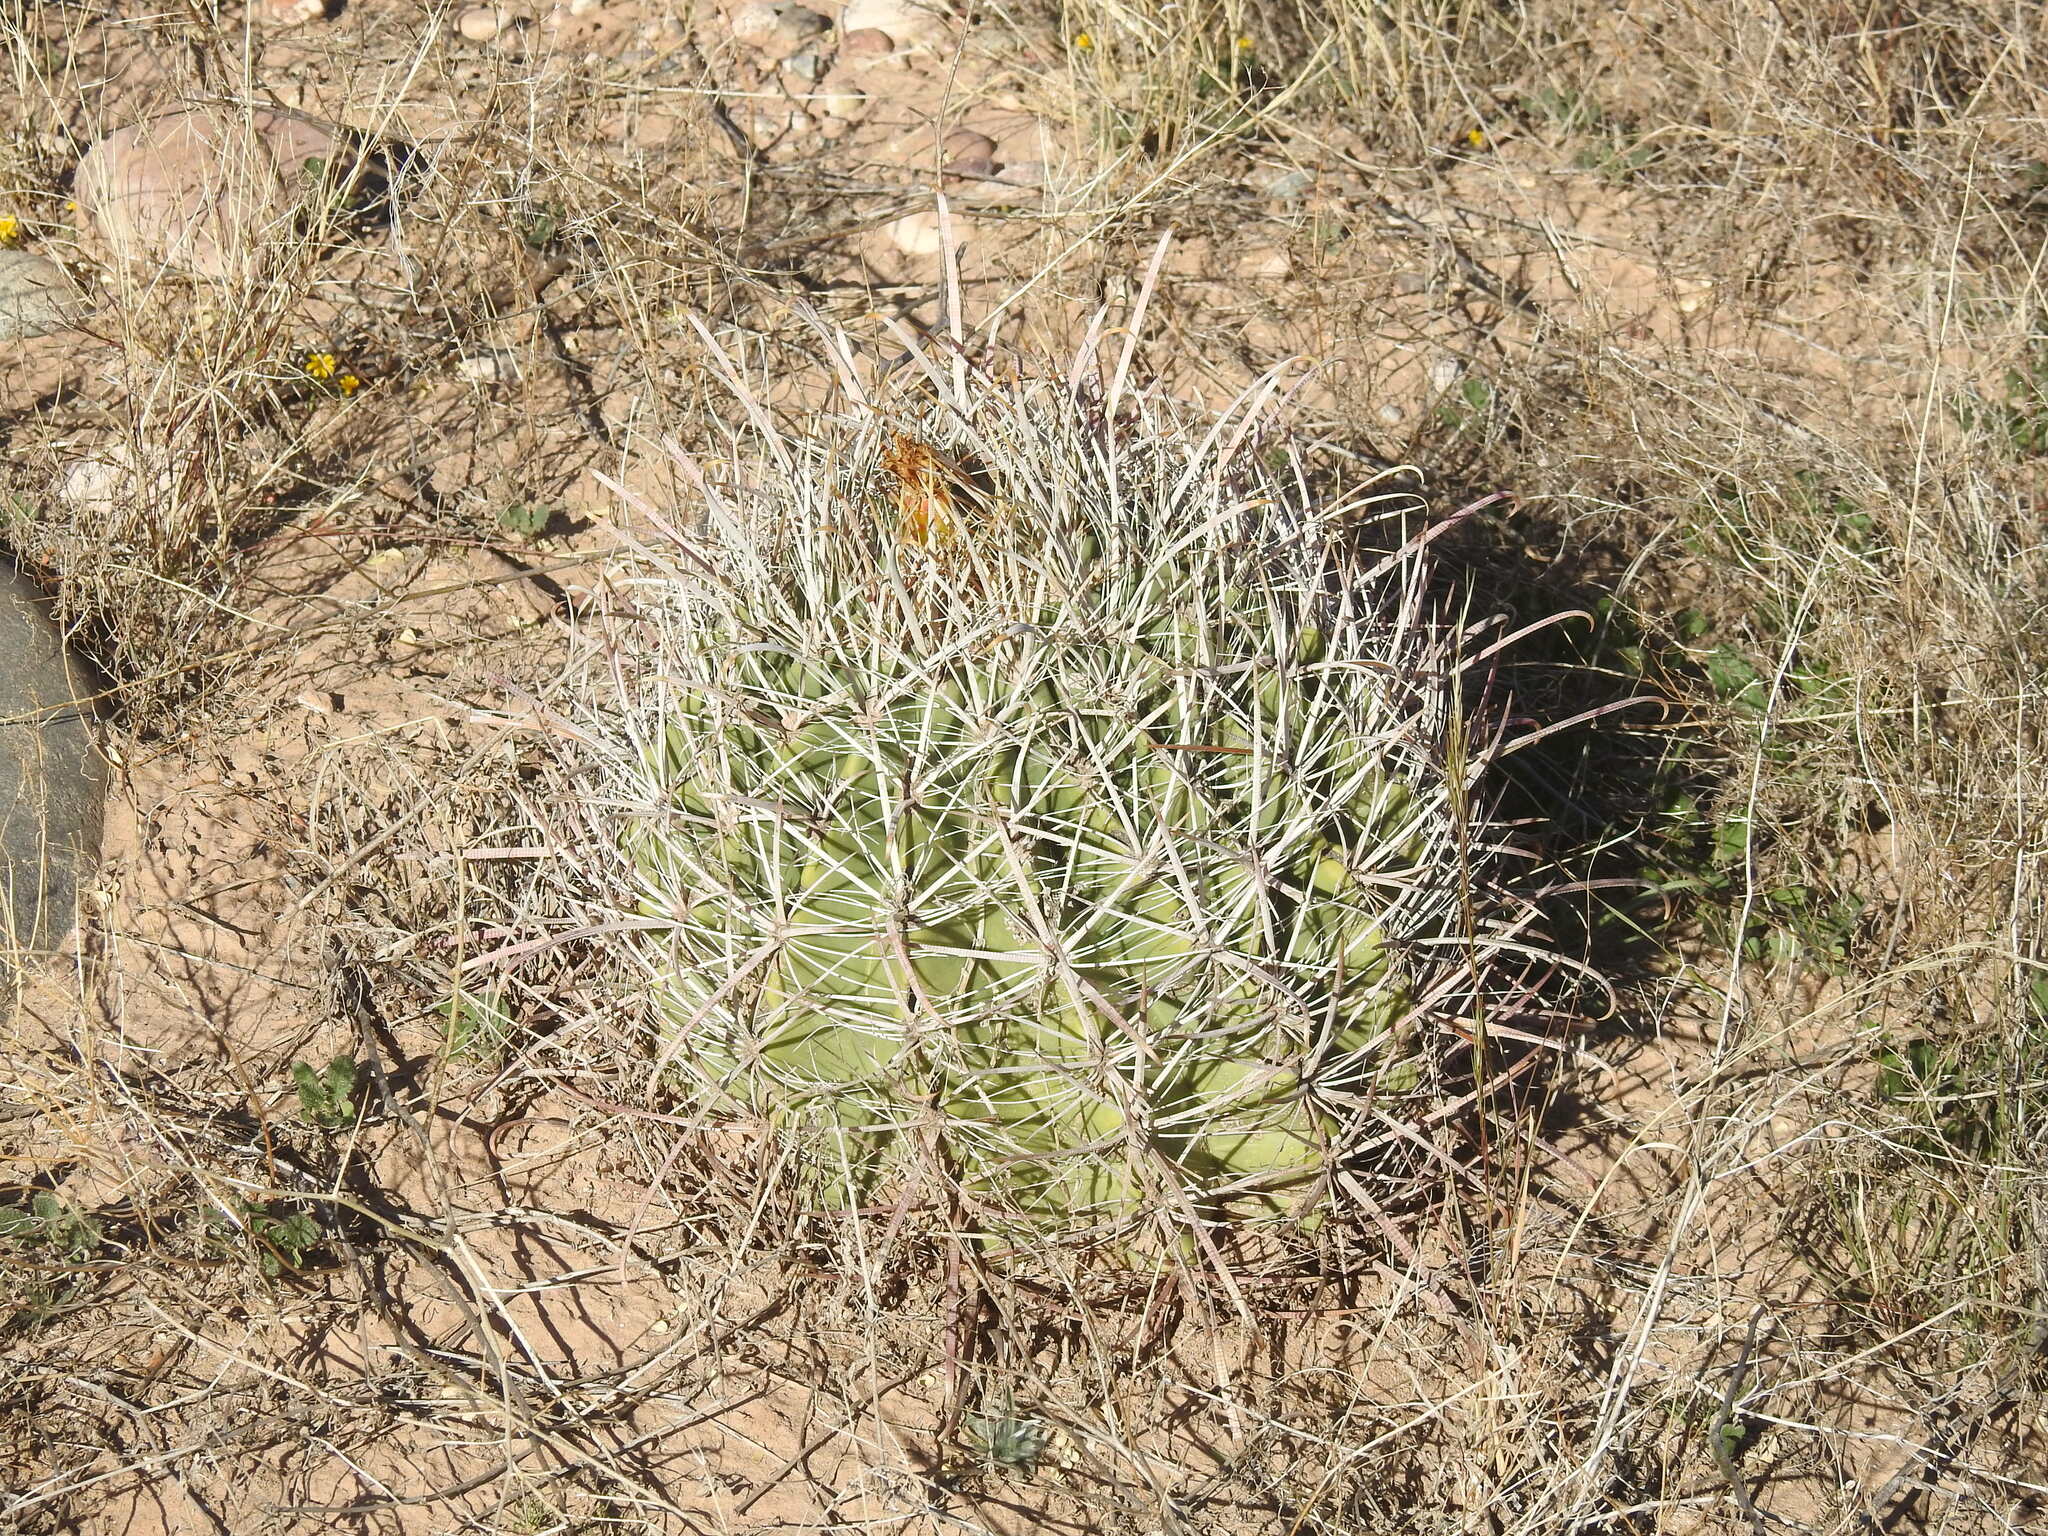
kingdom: Plantae
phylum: Tracheophyta
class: Magnoliopsida
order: Caryophyllales
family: Cactaceae
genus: Ferocactus
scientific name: Ferocactus cylindraceus
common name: California barrel cactus
